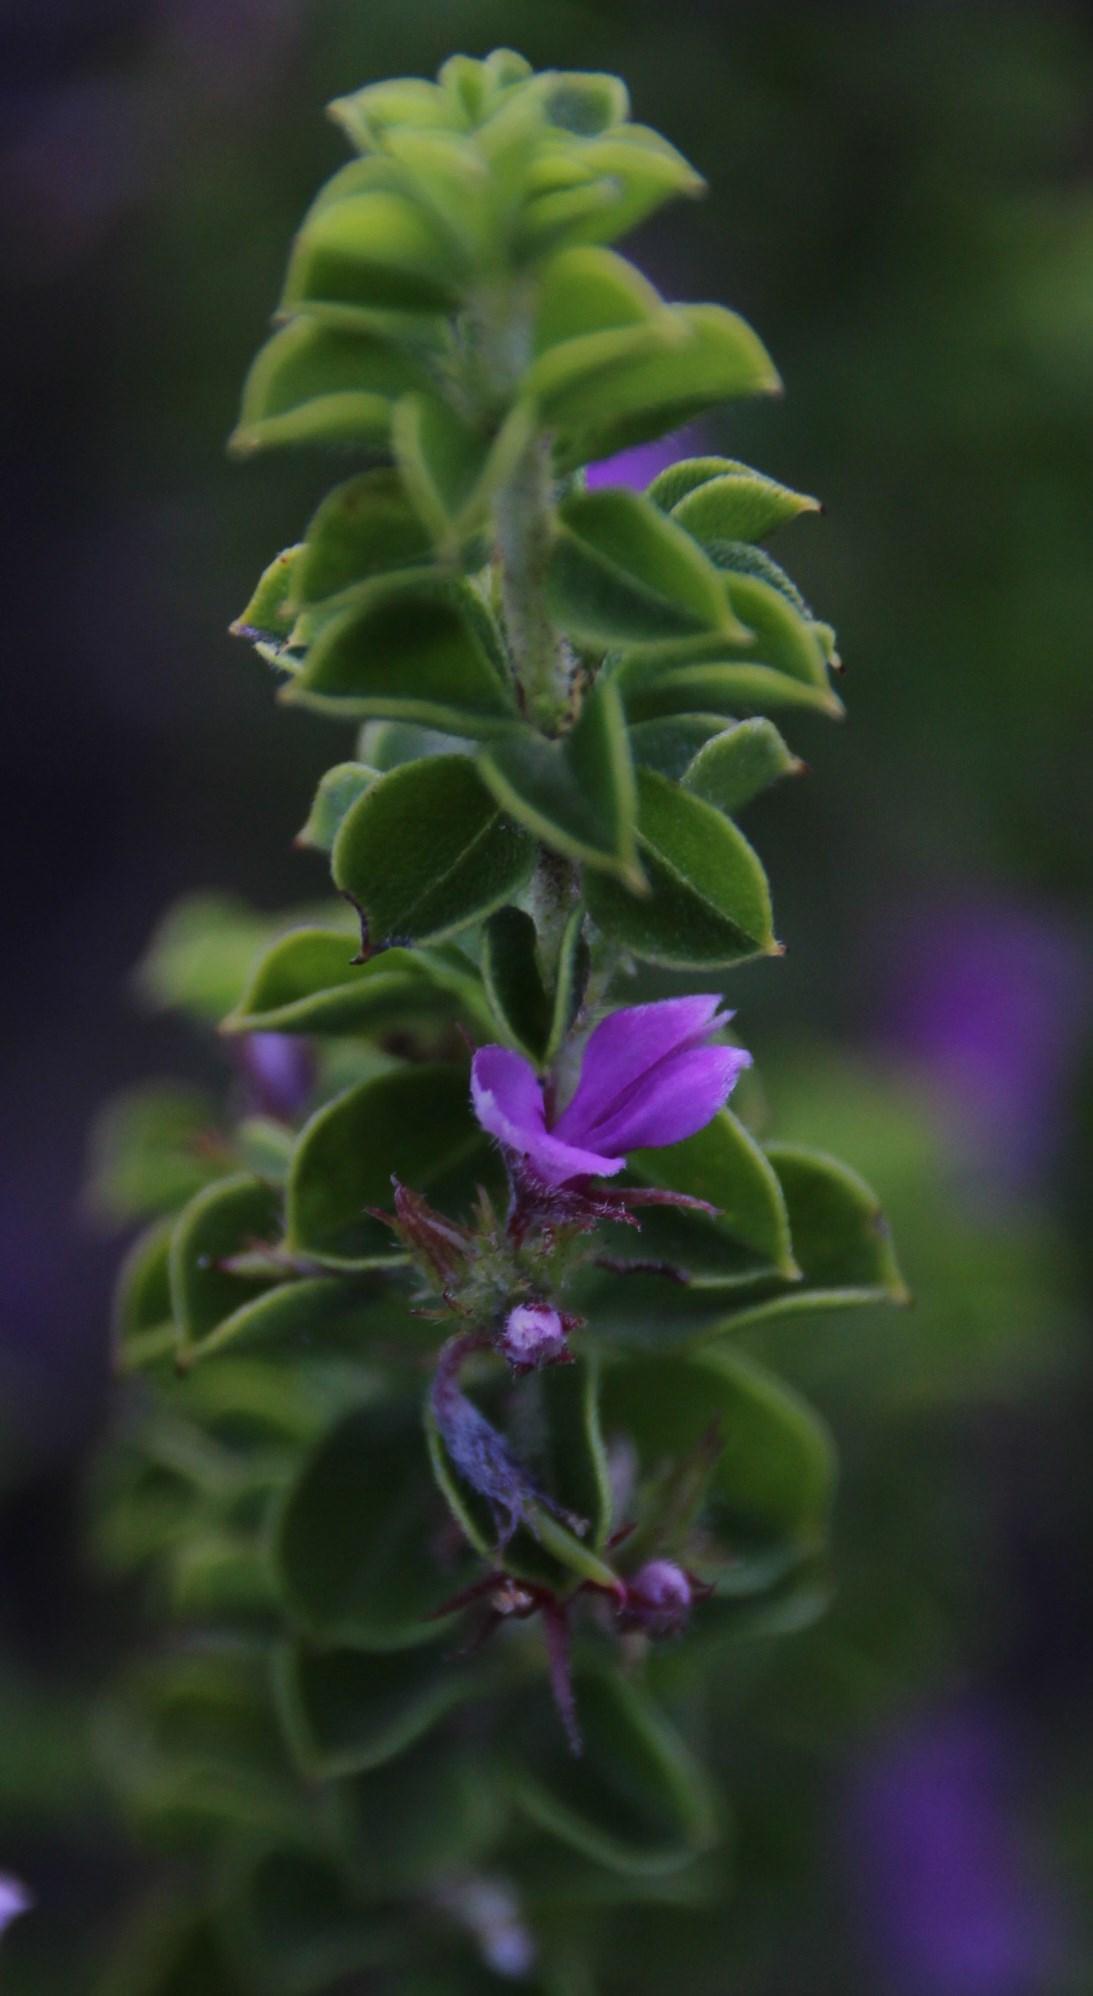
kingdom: Plantae
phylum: Tracheophyta
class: Magnoliopsida
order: Fabales
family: Fabaceae
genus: Indigofera
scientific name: Indigofera candolleana
